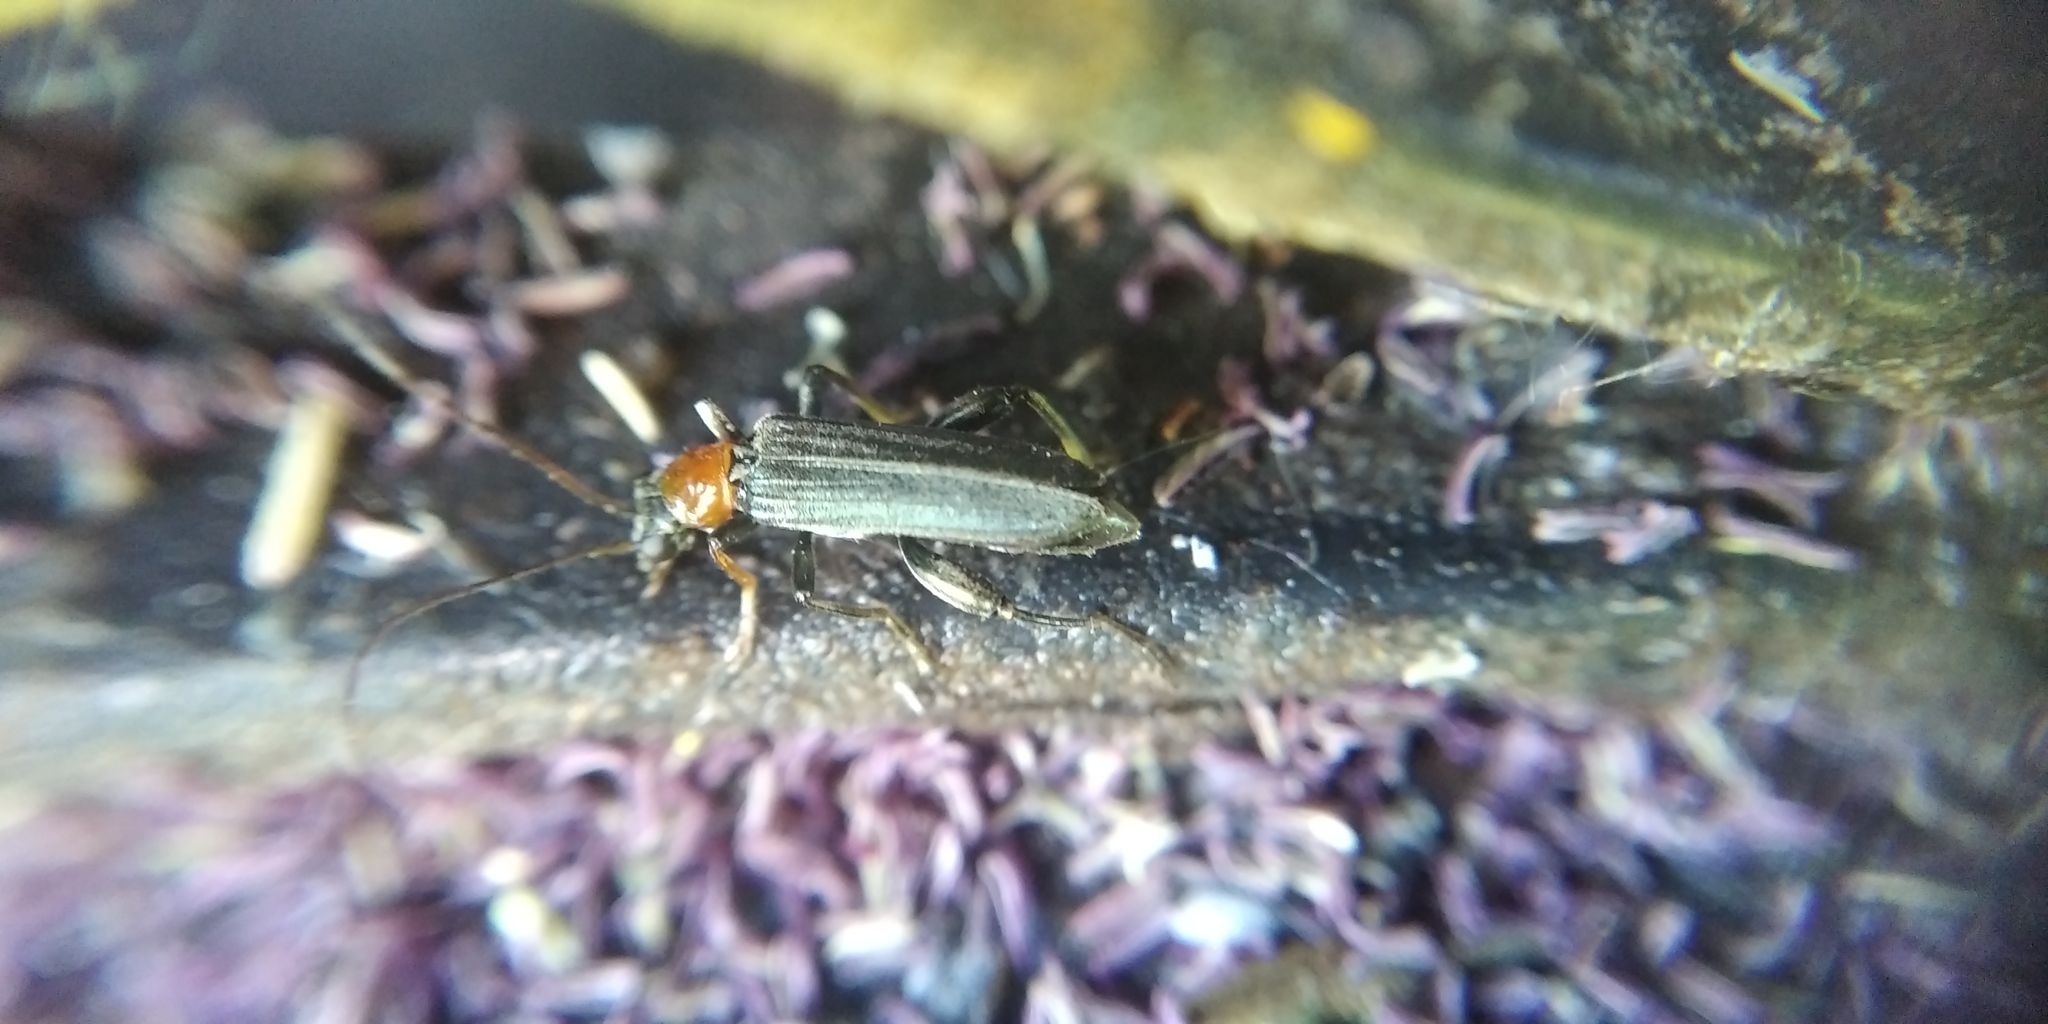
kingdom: Animalia
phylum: Arthropoda
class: Insecta
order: Coleoptera
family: Oedemeridae
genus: Oedemera
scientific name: Oedemera croceicollis
